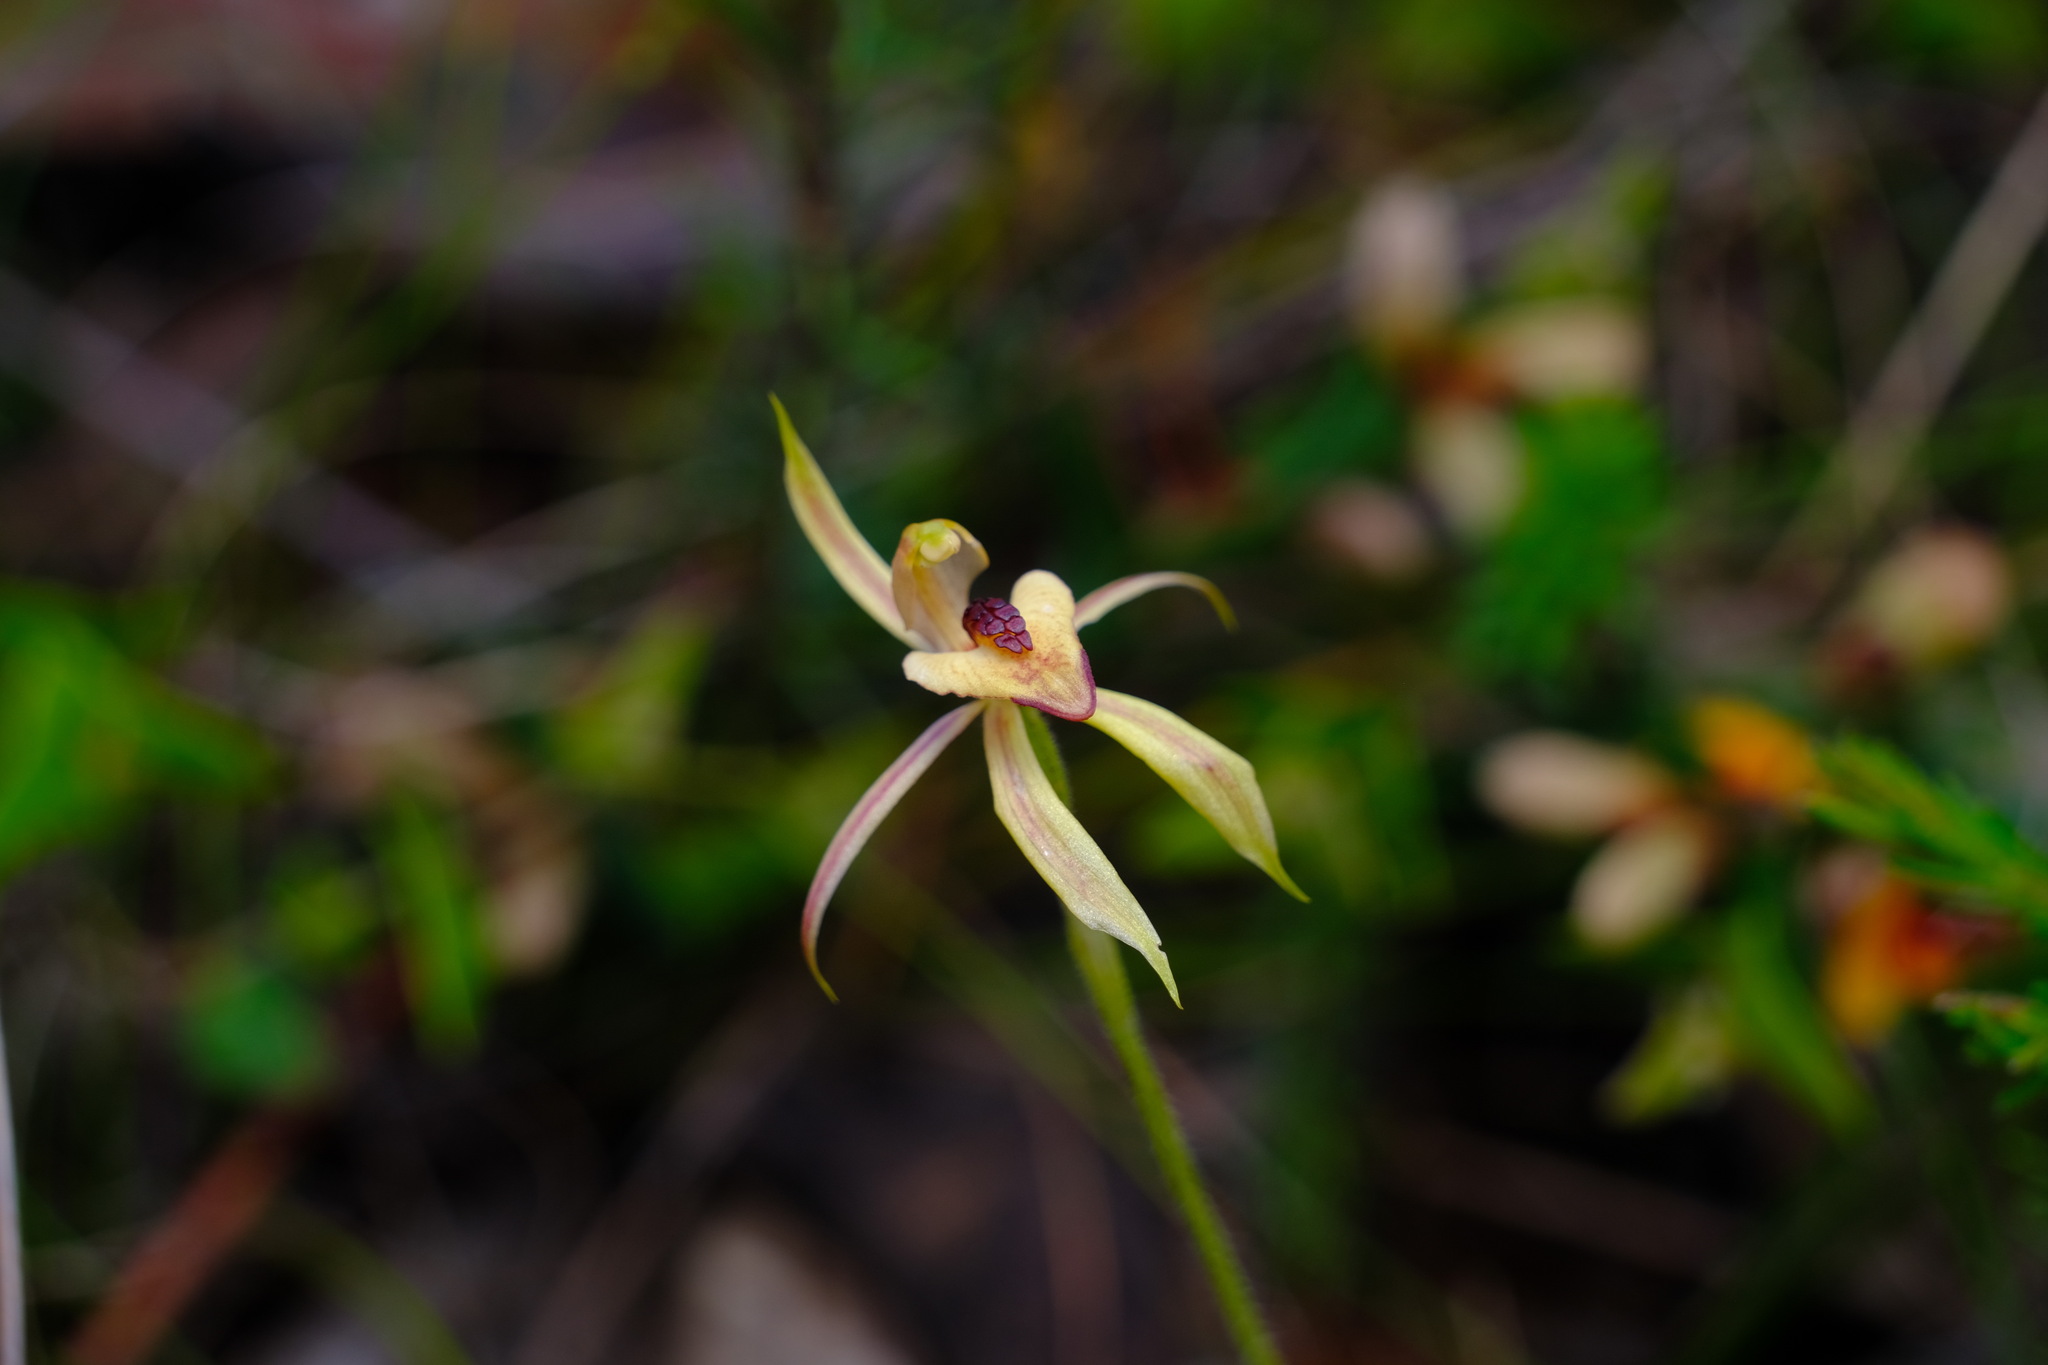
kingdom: Plantae
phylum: Tracheophyta
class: Liliopsida
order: Asparagales
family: Orchidaceae
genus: Caladenia
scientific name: Caladenia cardiochila
